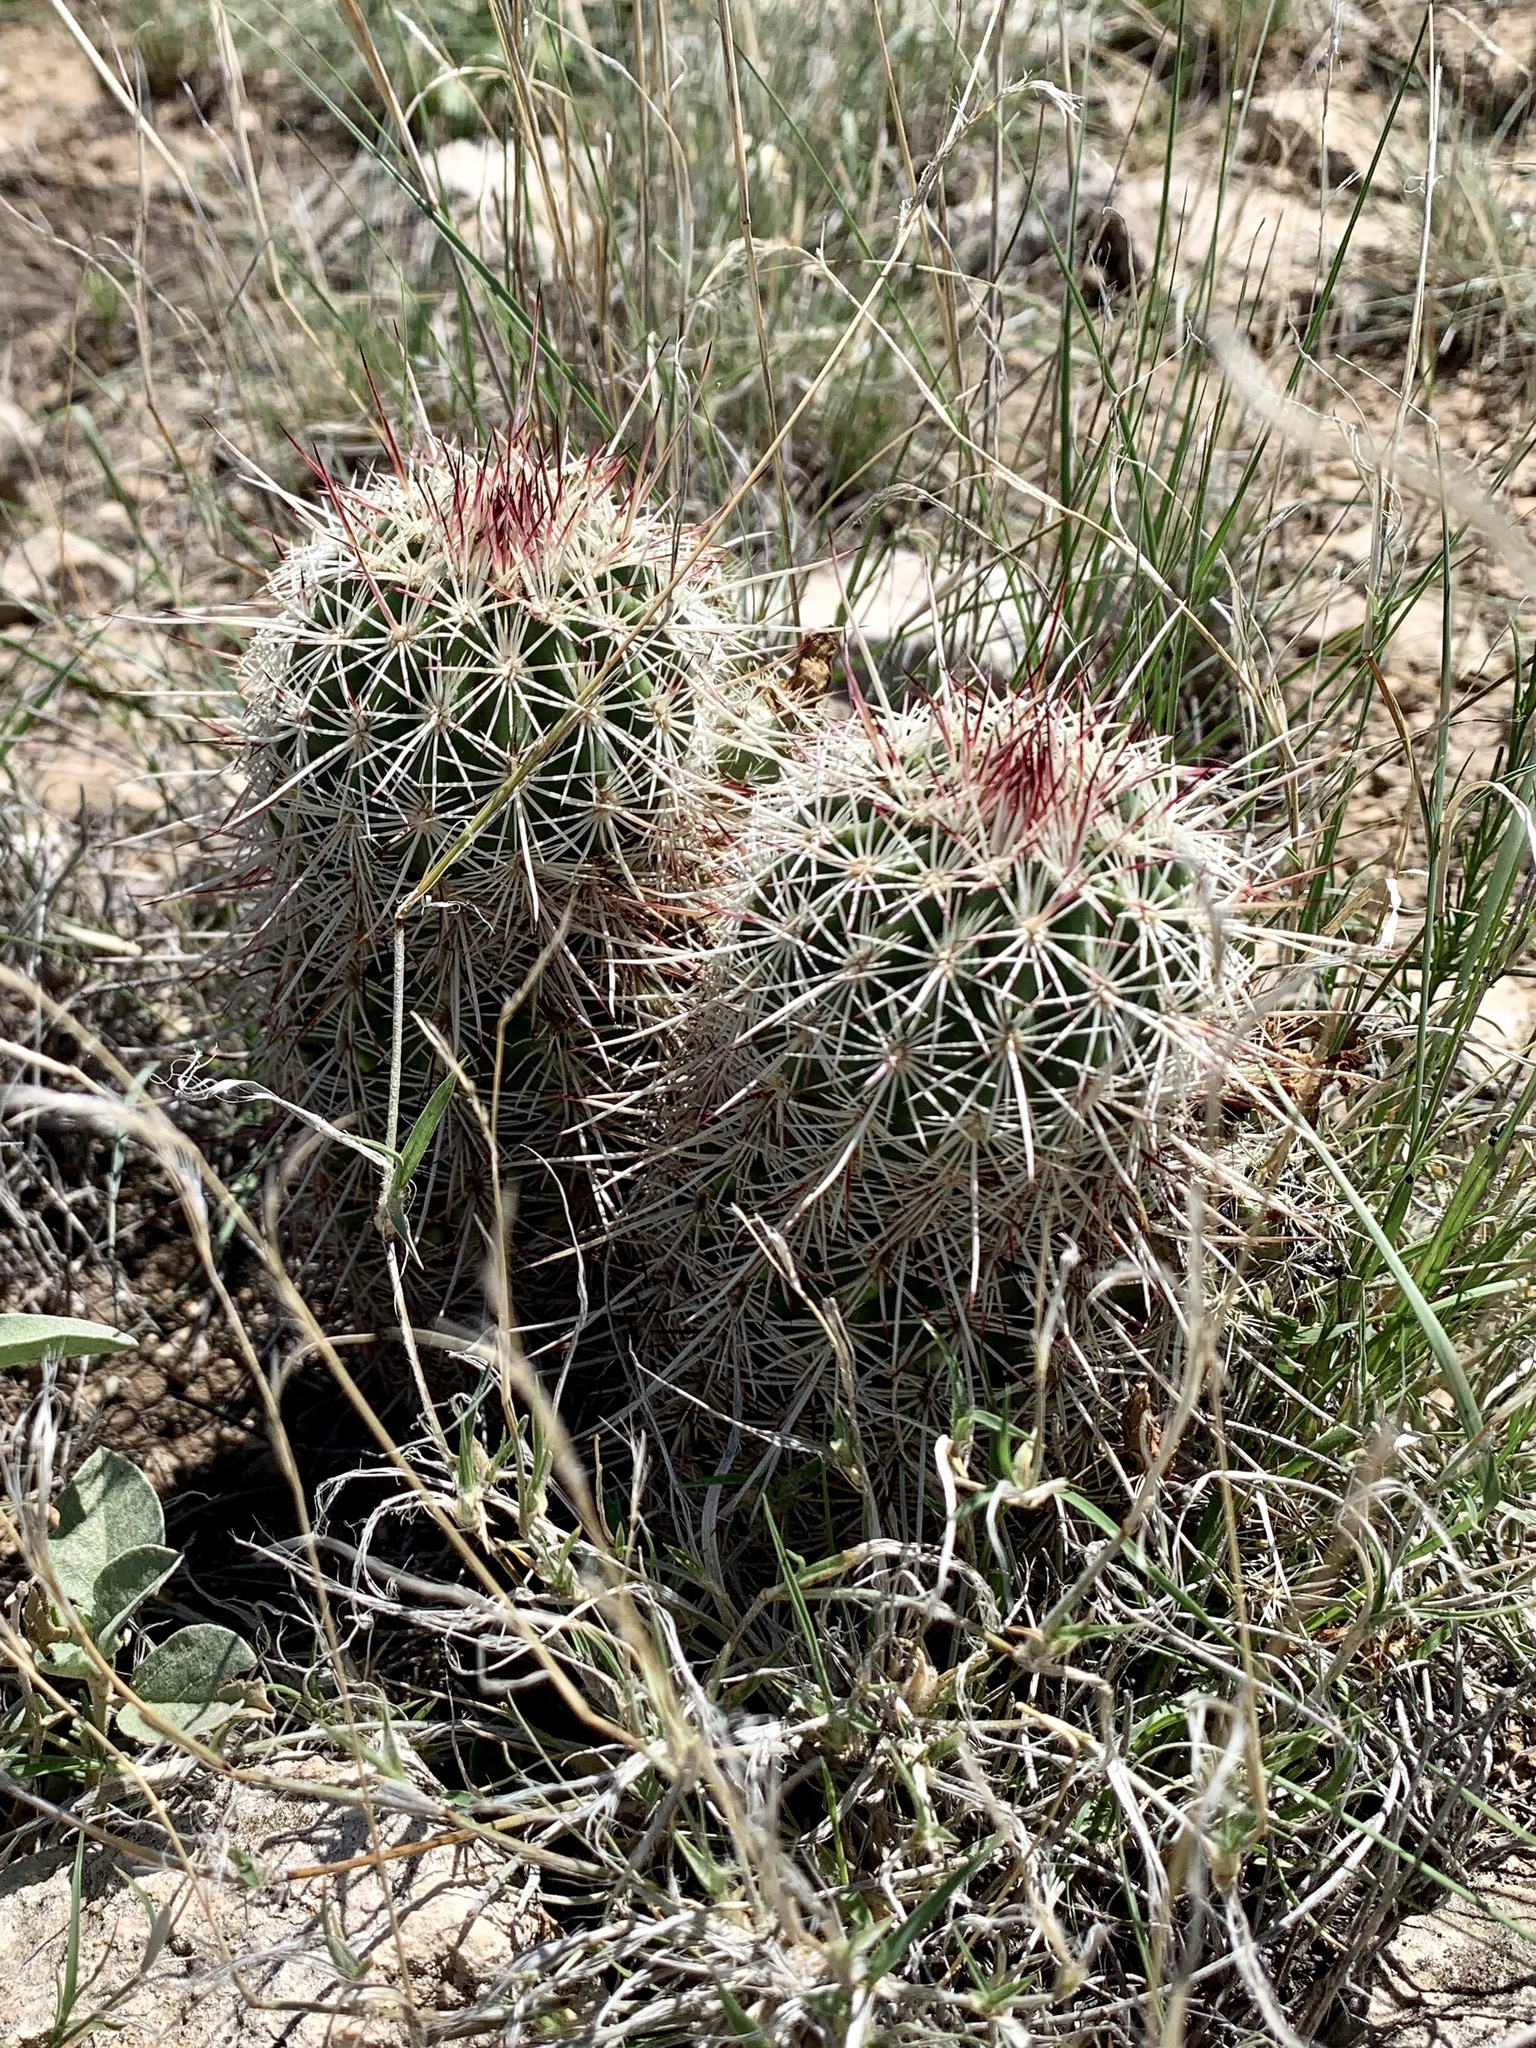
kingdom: Plantae
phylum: Tracheophyta
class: Magnoliopsida
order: Caryophyllales
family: Cactaceae
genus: Echinocereus
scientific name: Echinocereus viridiflorus
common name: Nylon hedgehog cactus
